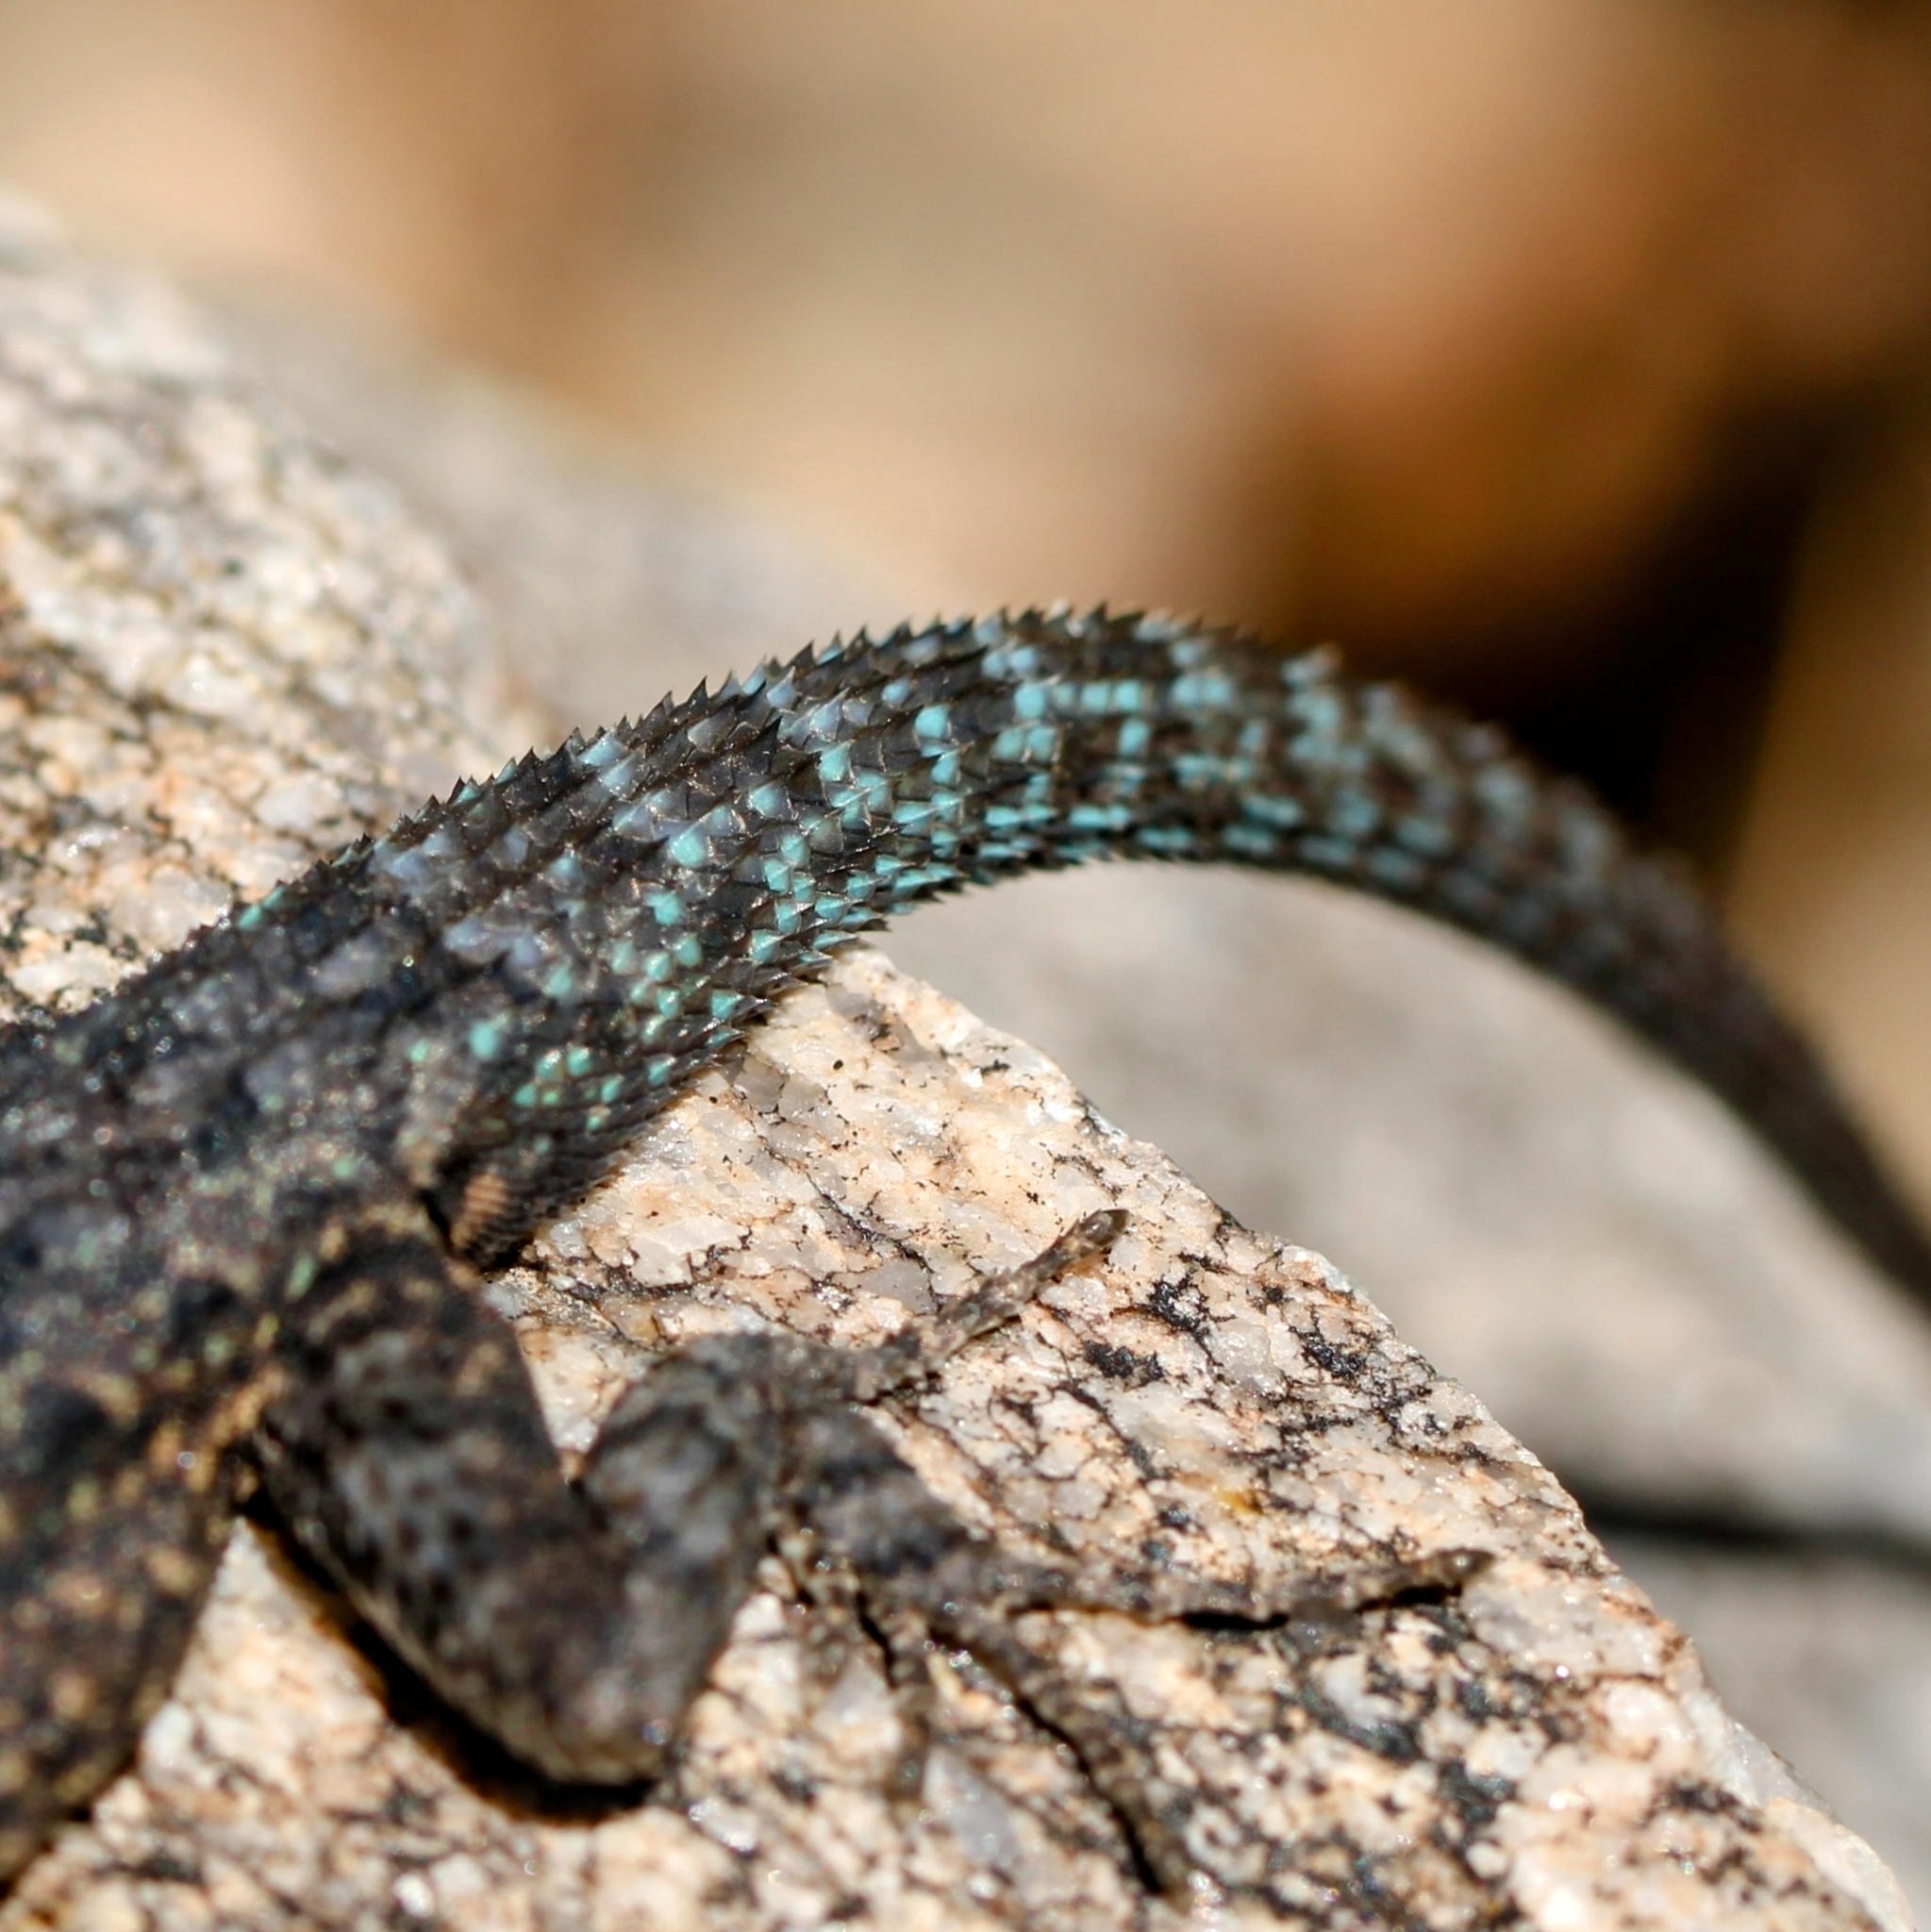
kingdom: Animalia
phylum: Chordata
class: Squamata
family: Phrynosomatidae
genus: Urosaurus
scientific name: Urosaurus ornatus
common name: Ornate tree lizard
